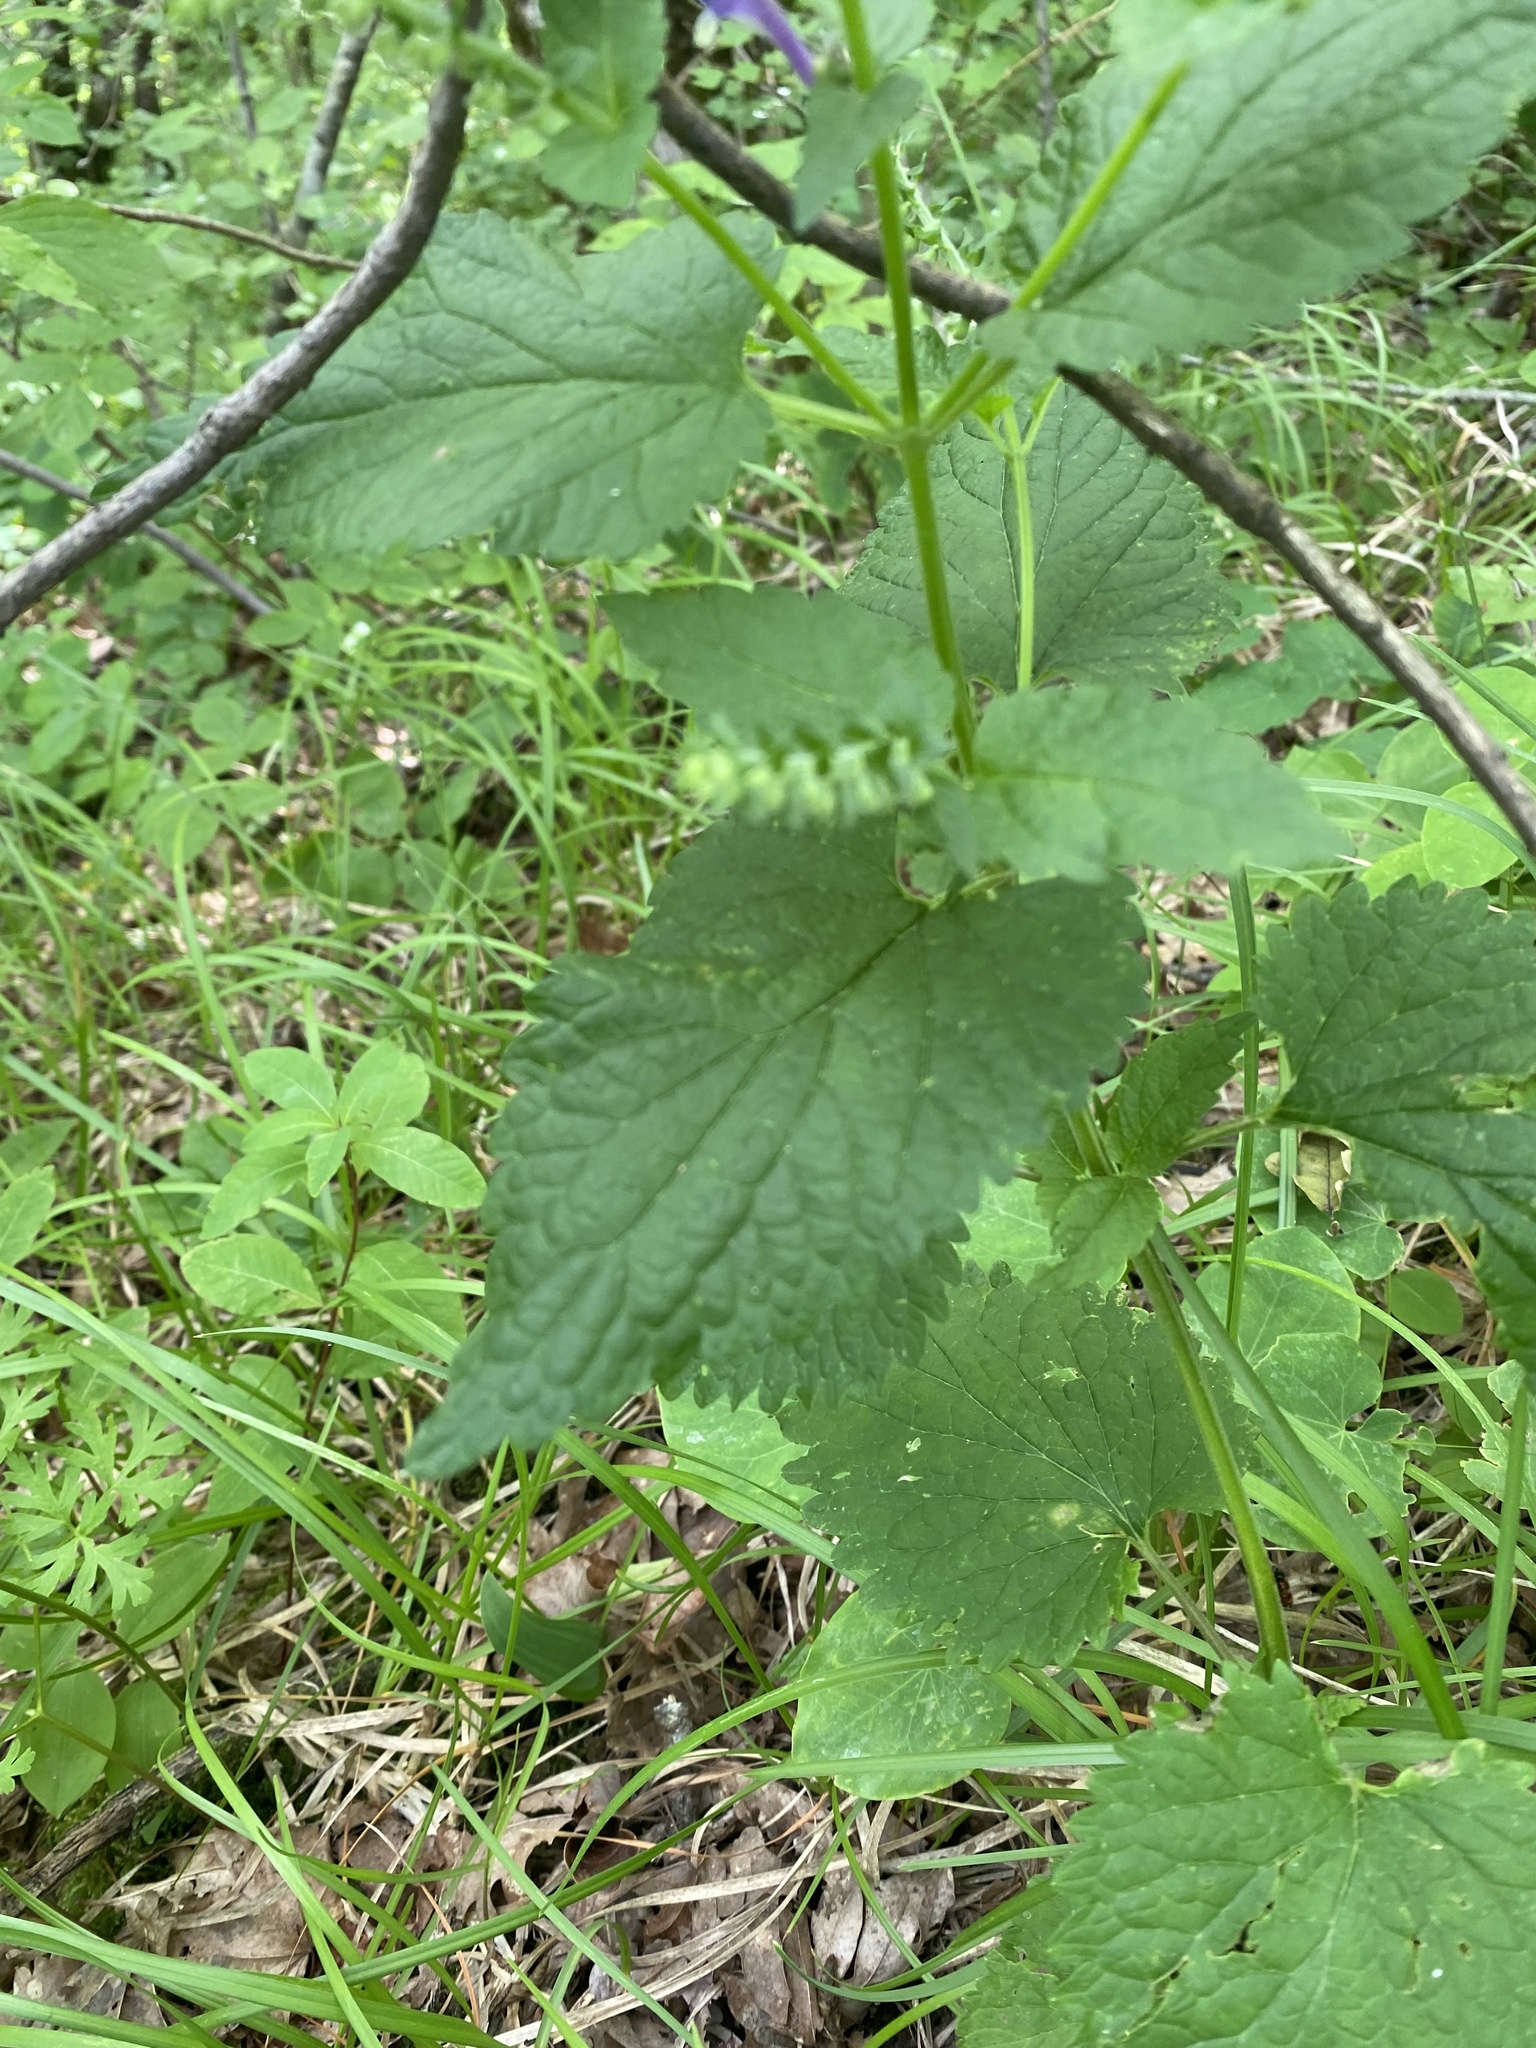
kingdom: Plantae
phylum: Tracheophyta
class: Magnoliopsida
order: Lamiales
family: Lamiaceae
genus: Scutellaria
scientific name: Scutellaria altissima
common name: Somerset skullcap
